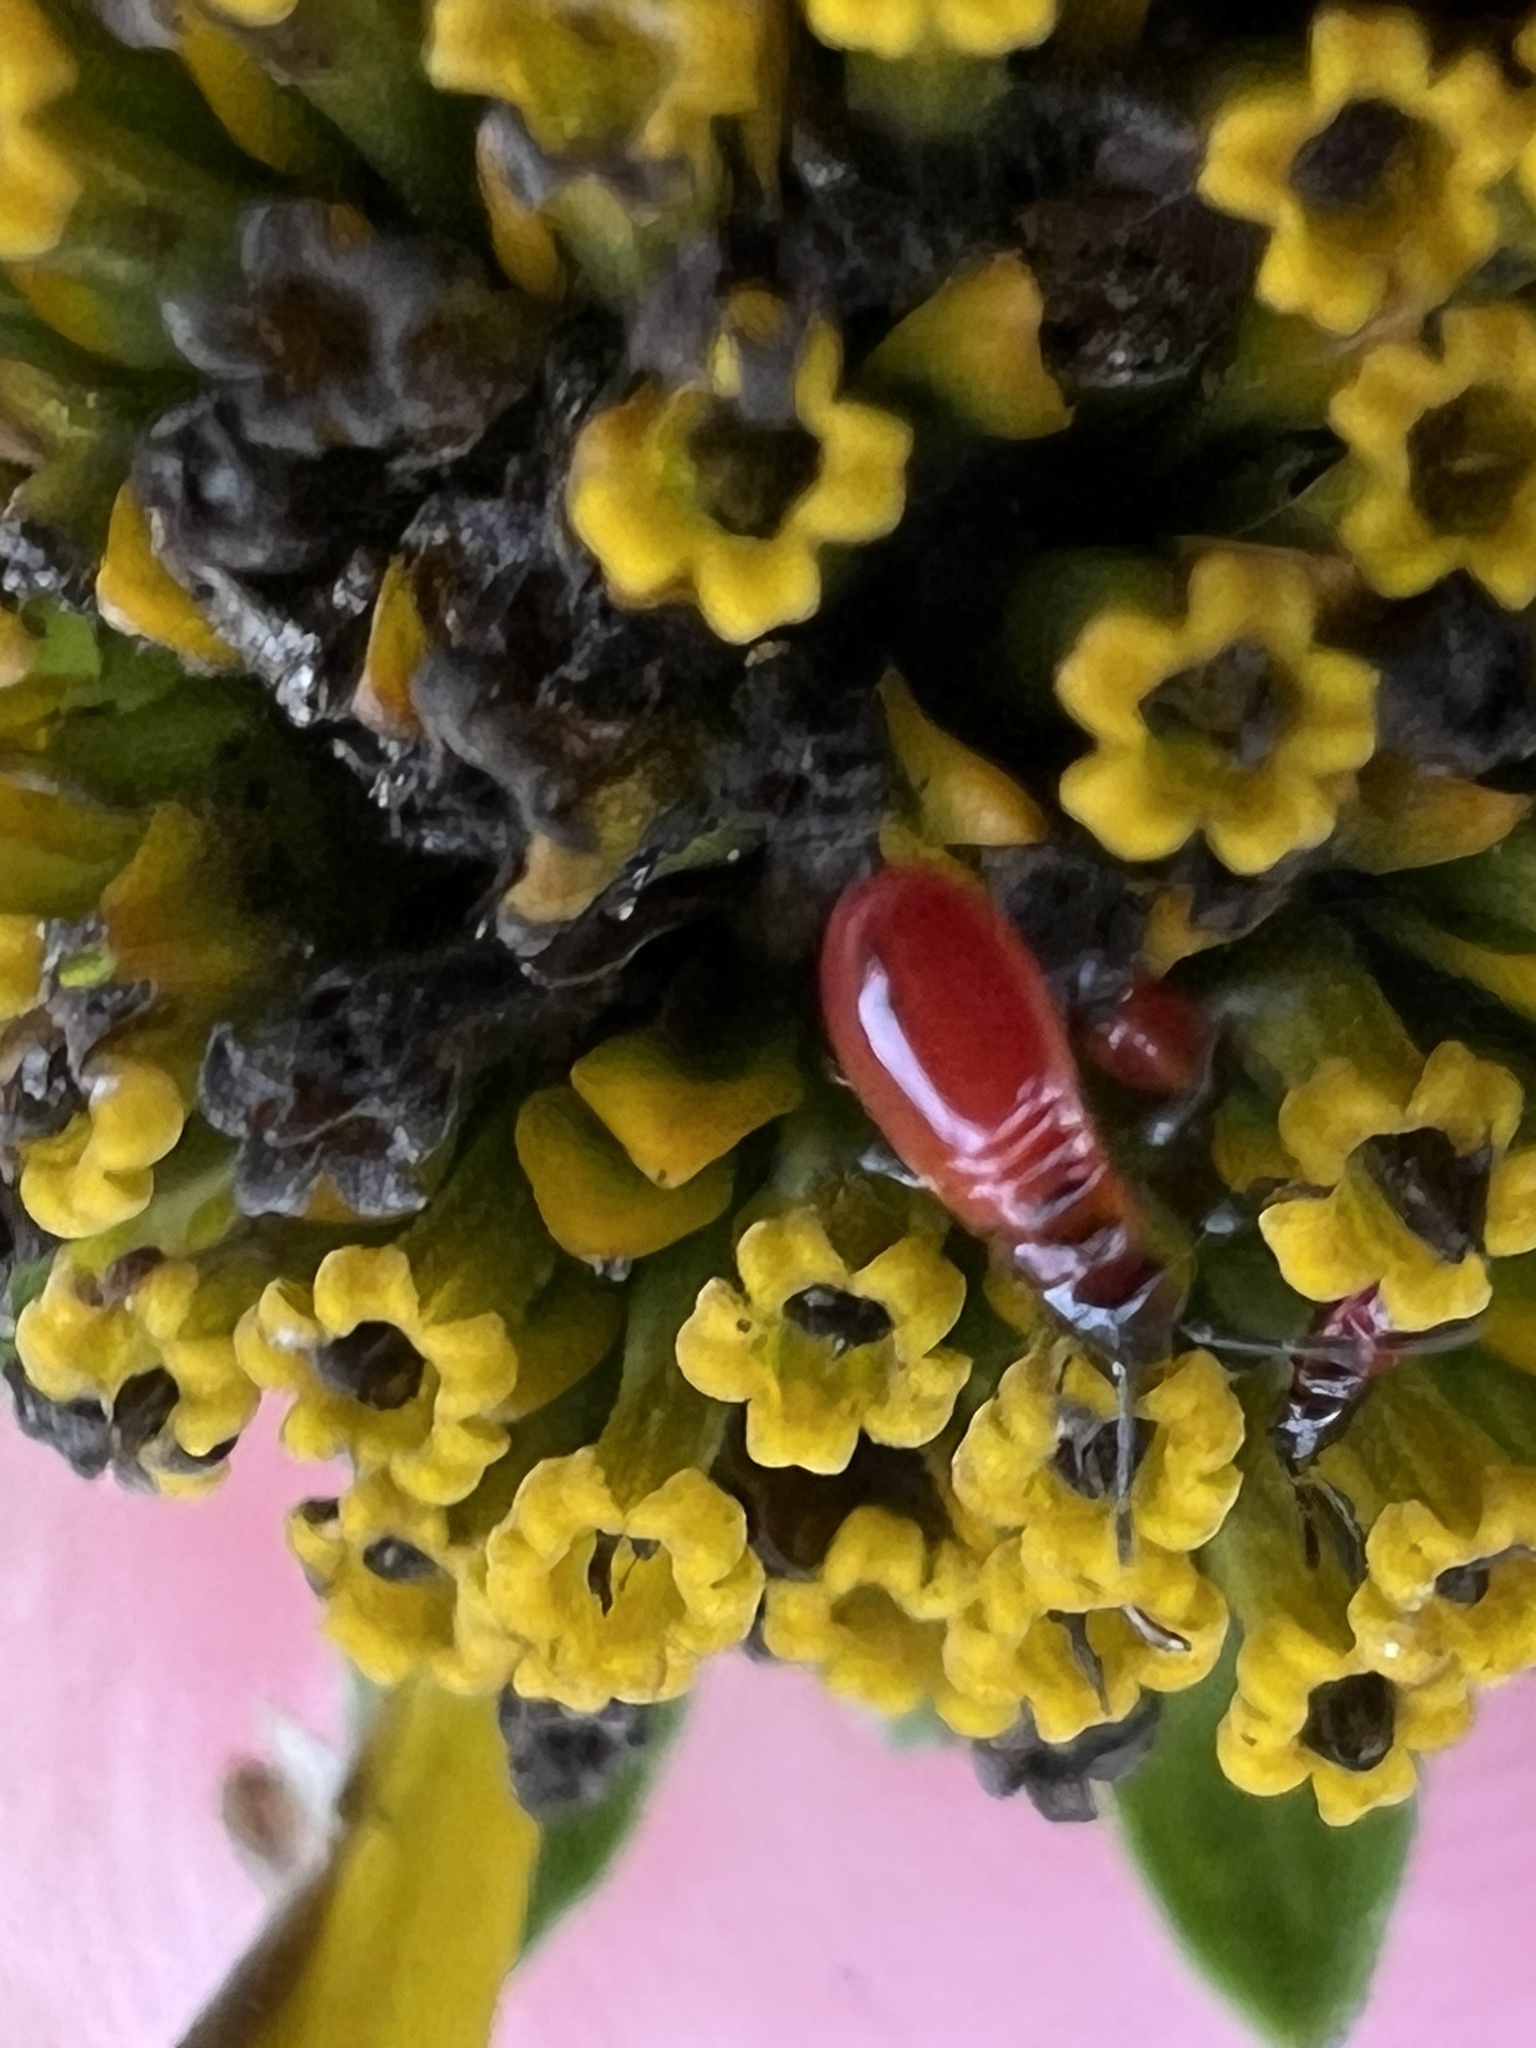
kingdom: Animalia
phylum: Arthropoda
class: Insecta
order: Hemiptera
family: Lygaeidae
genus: Lygaeus
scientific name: Lygaeus turcicus
